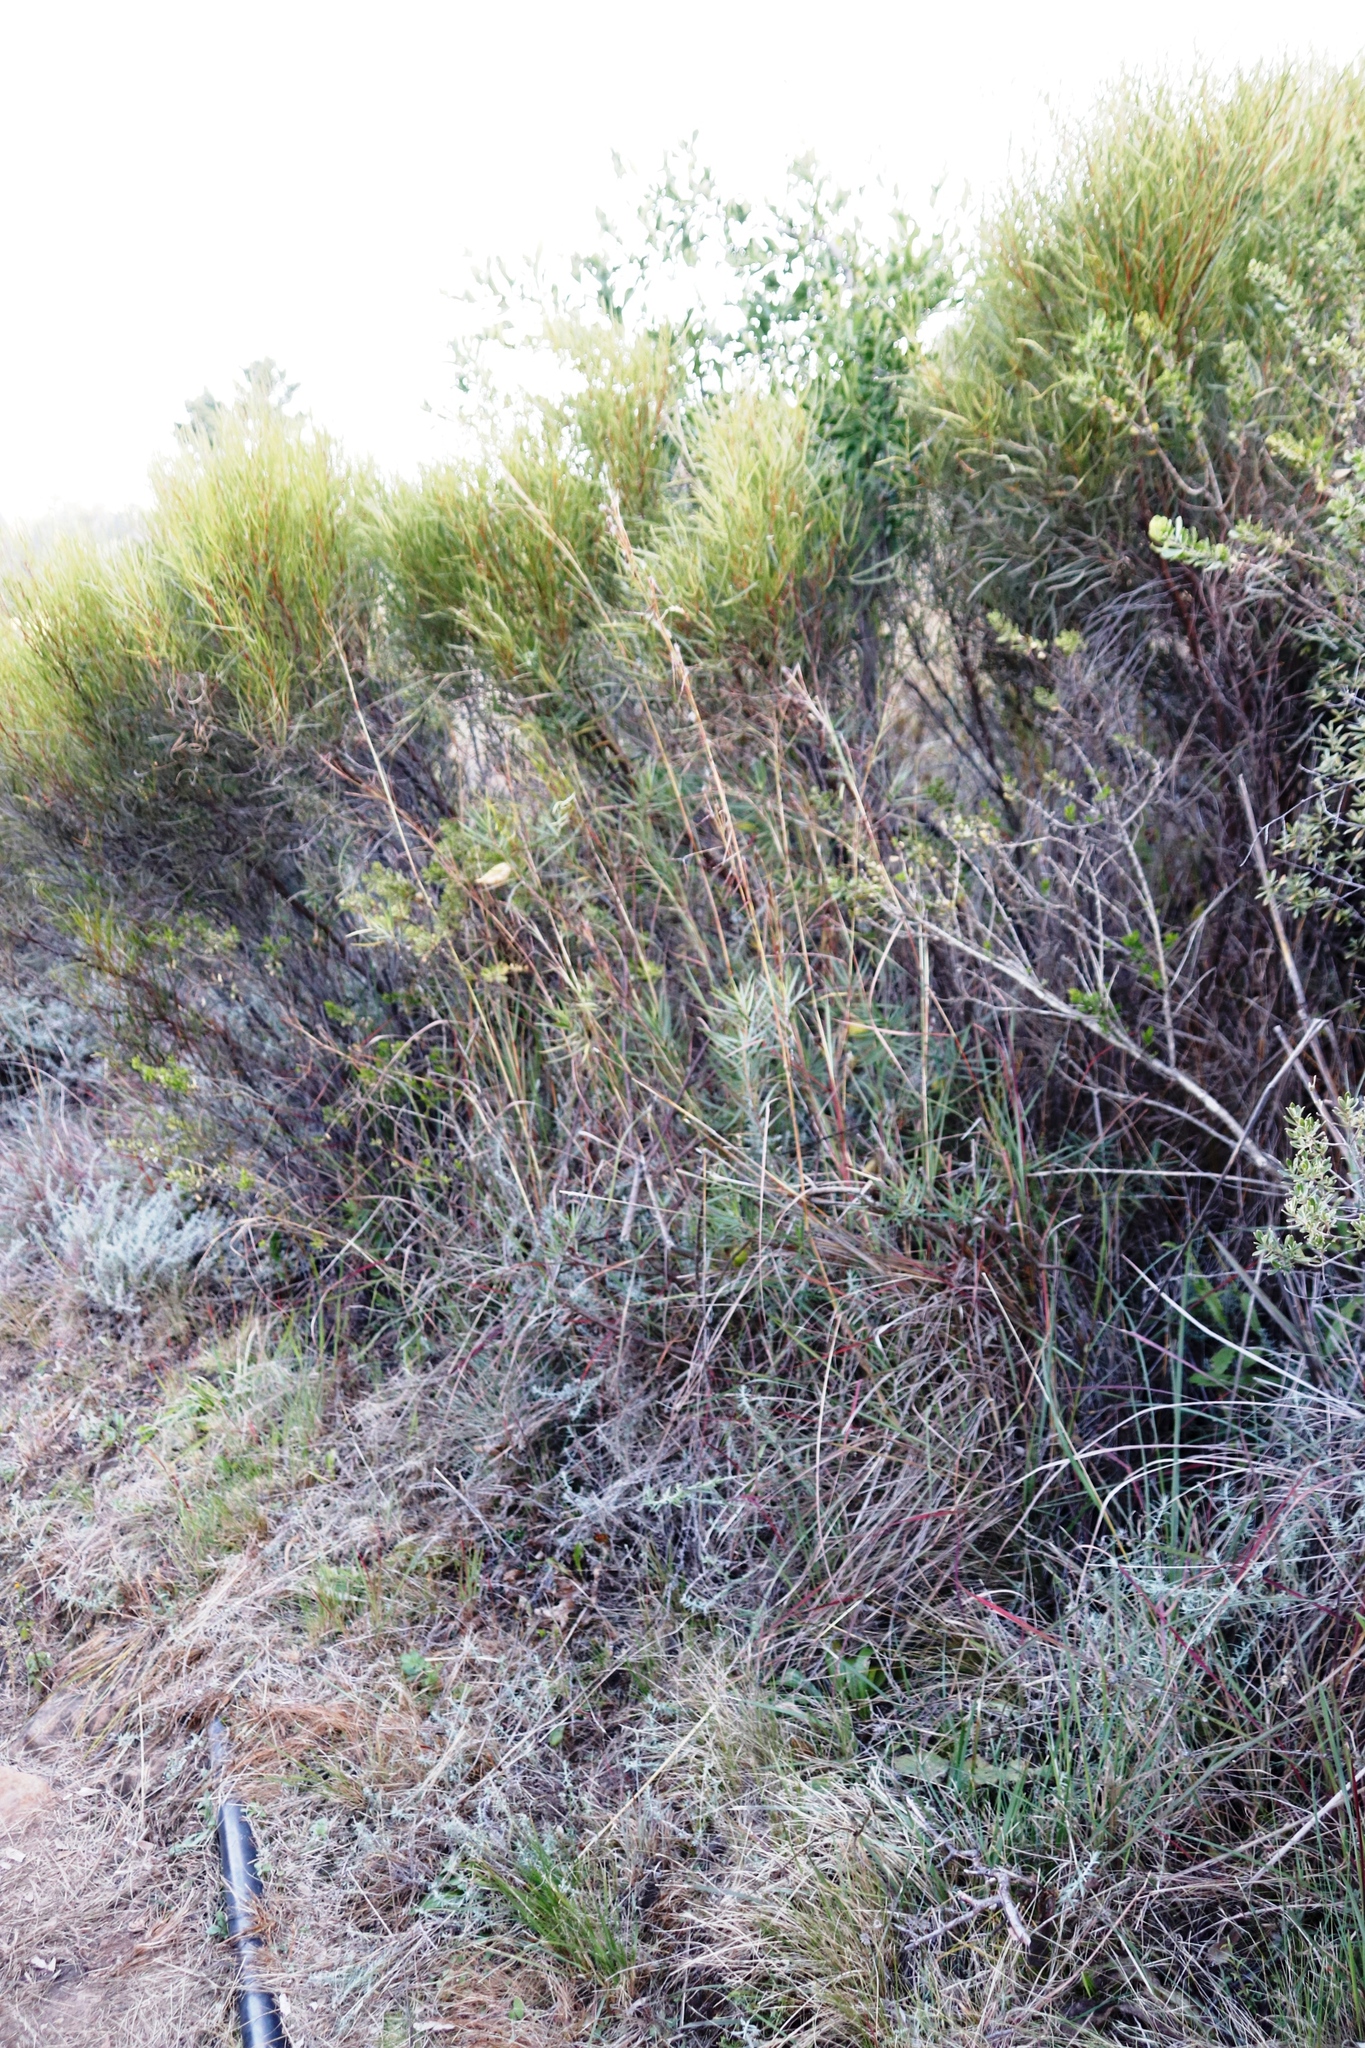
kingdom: Plantae
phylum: Tracheophyta
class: Magnoliopsida
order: Gentianales
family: Apocynaceae
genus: Gomphocarpus
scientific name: Gomphocarpus fruticosus
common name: Milkweed
